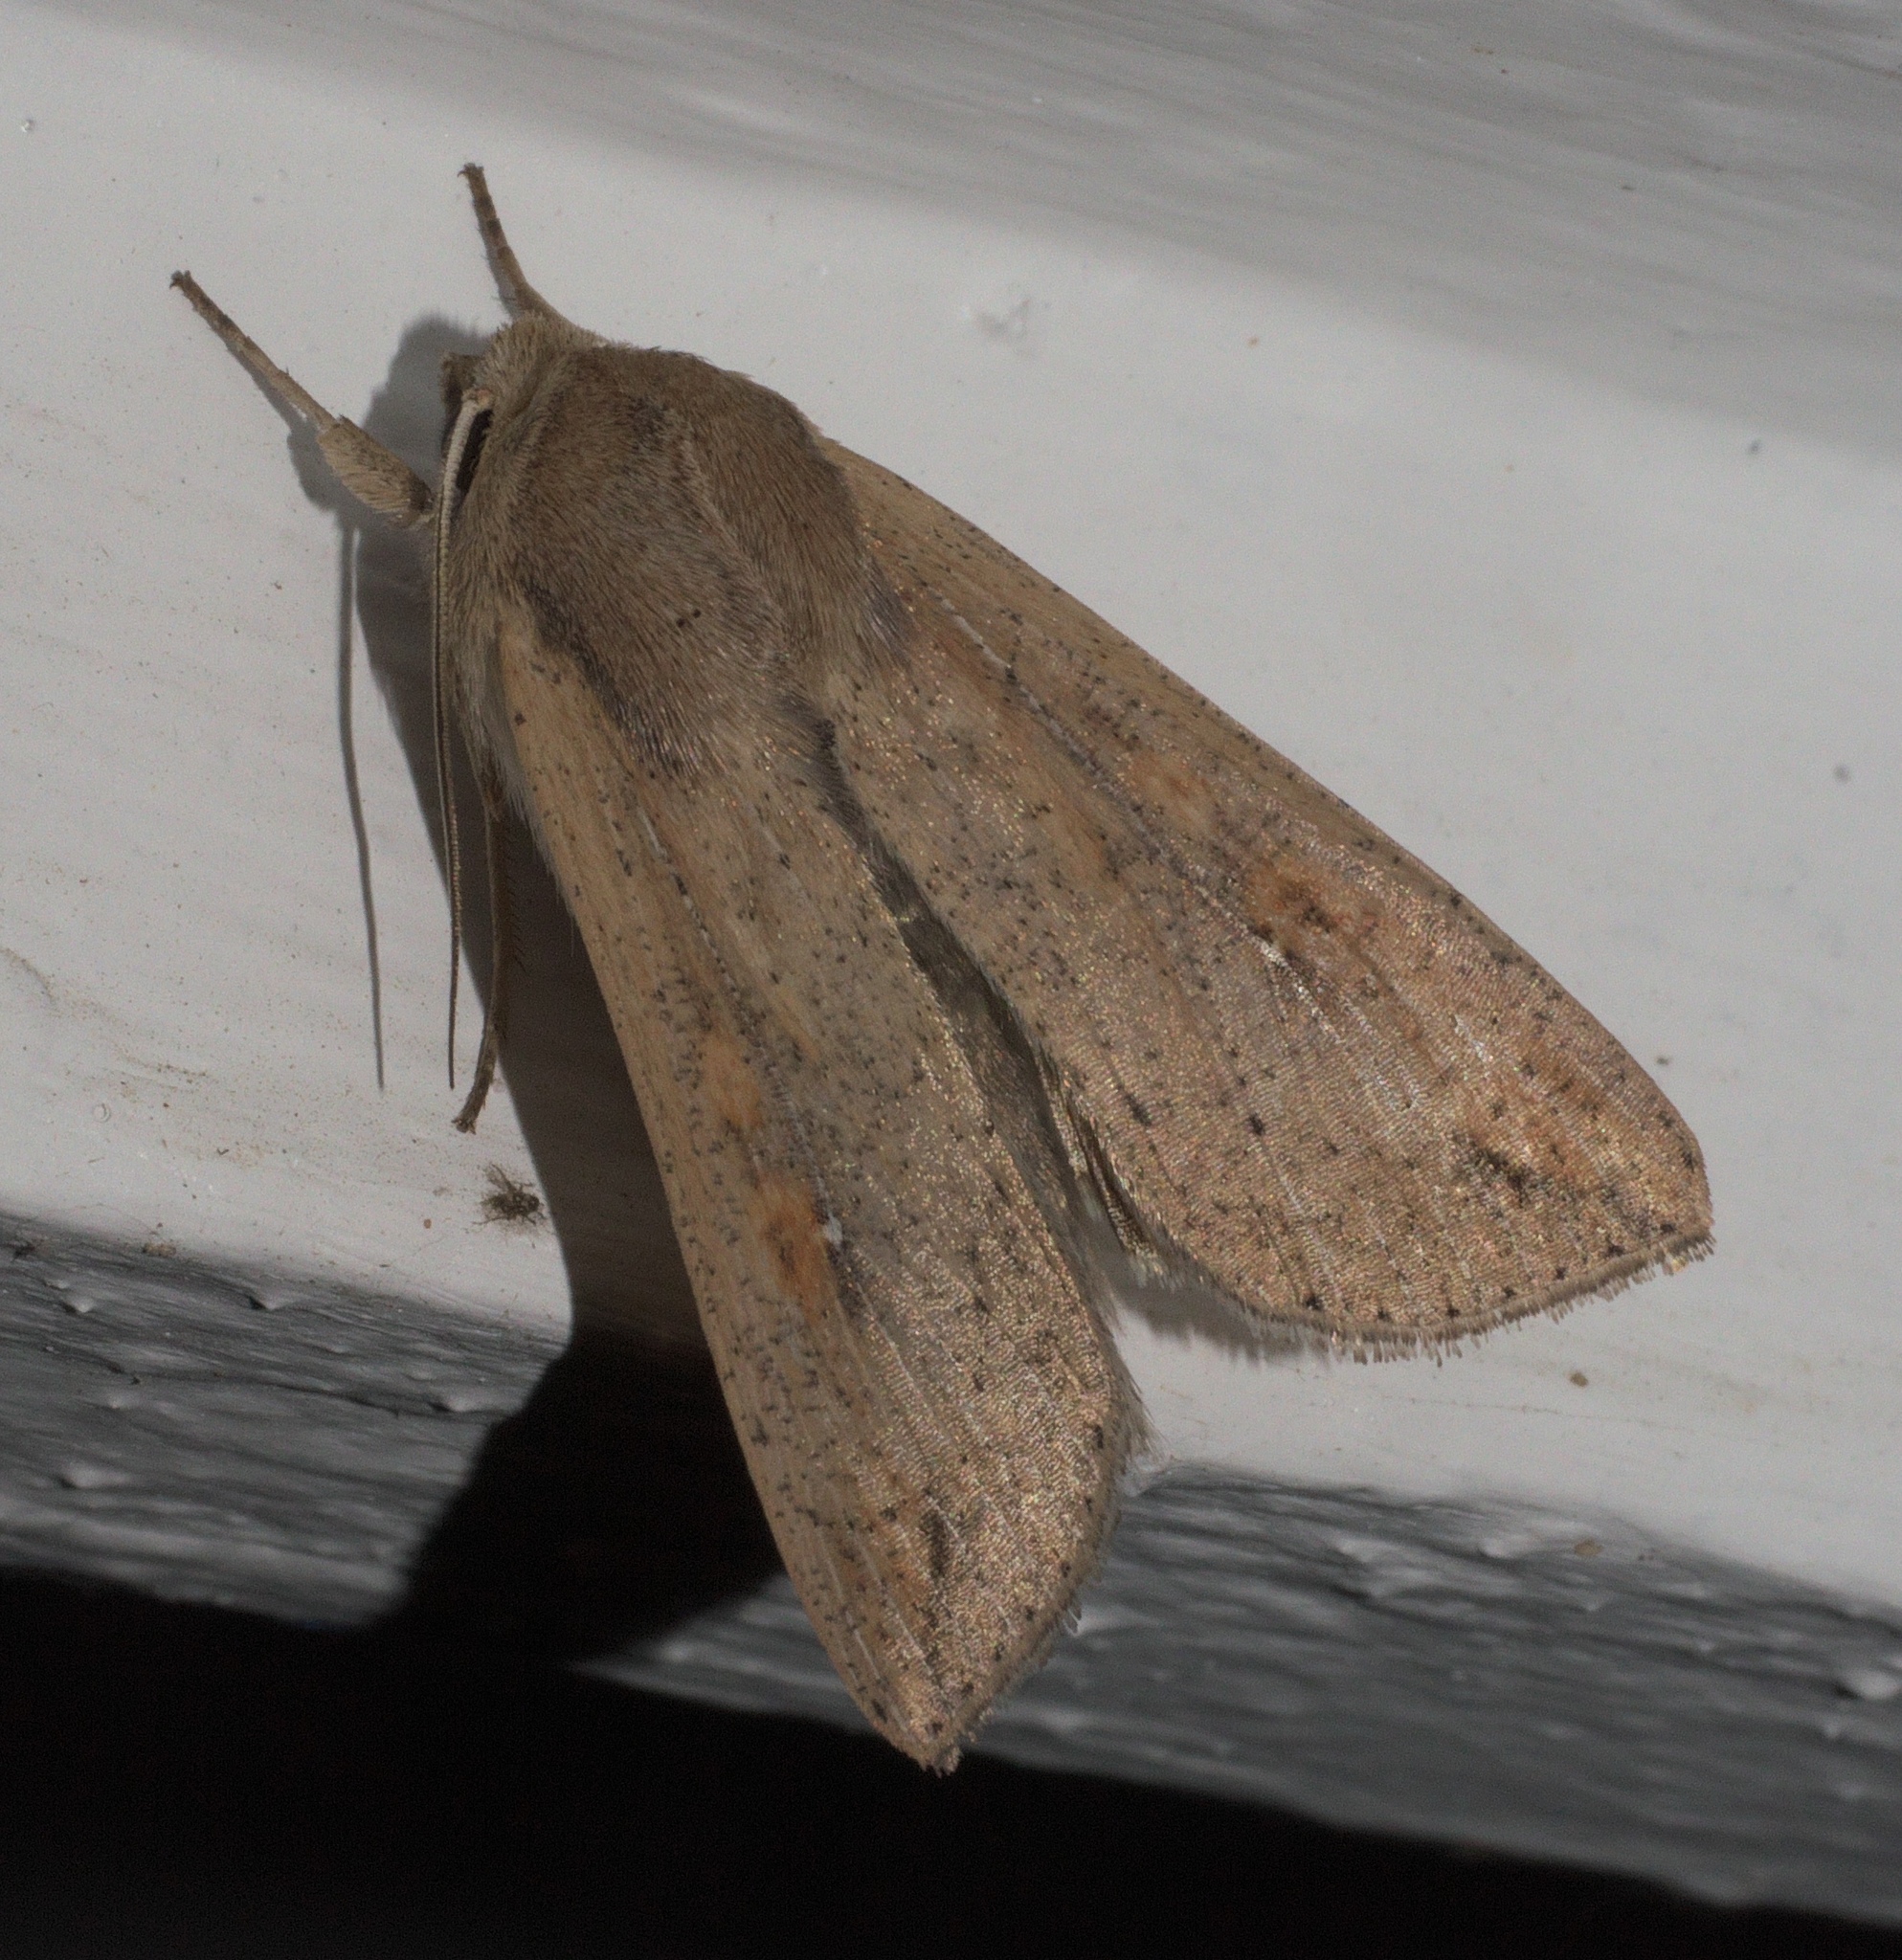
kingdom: Animalia
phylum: Arthropoda
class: Insecta
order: Lepidoptera
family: Noctuidae
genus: Mythimna
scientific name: Mythimna unipuncta
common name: White-speck
